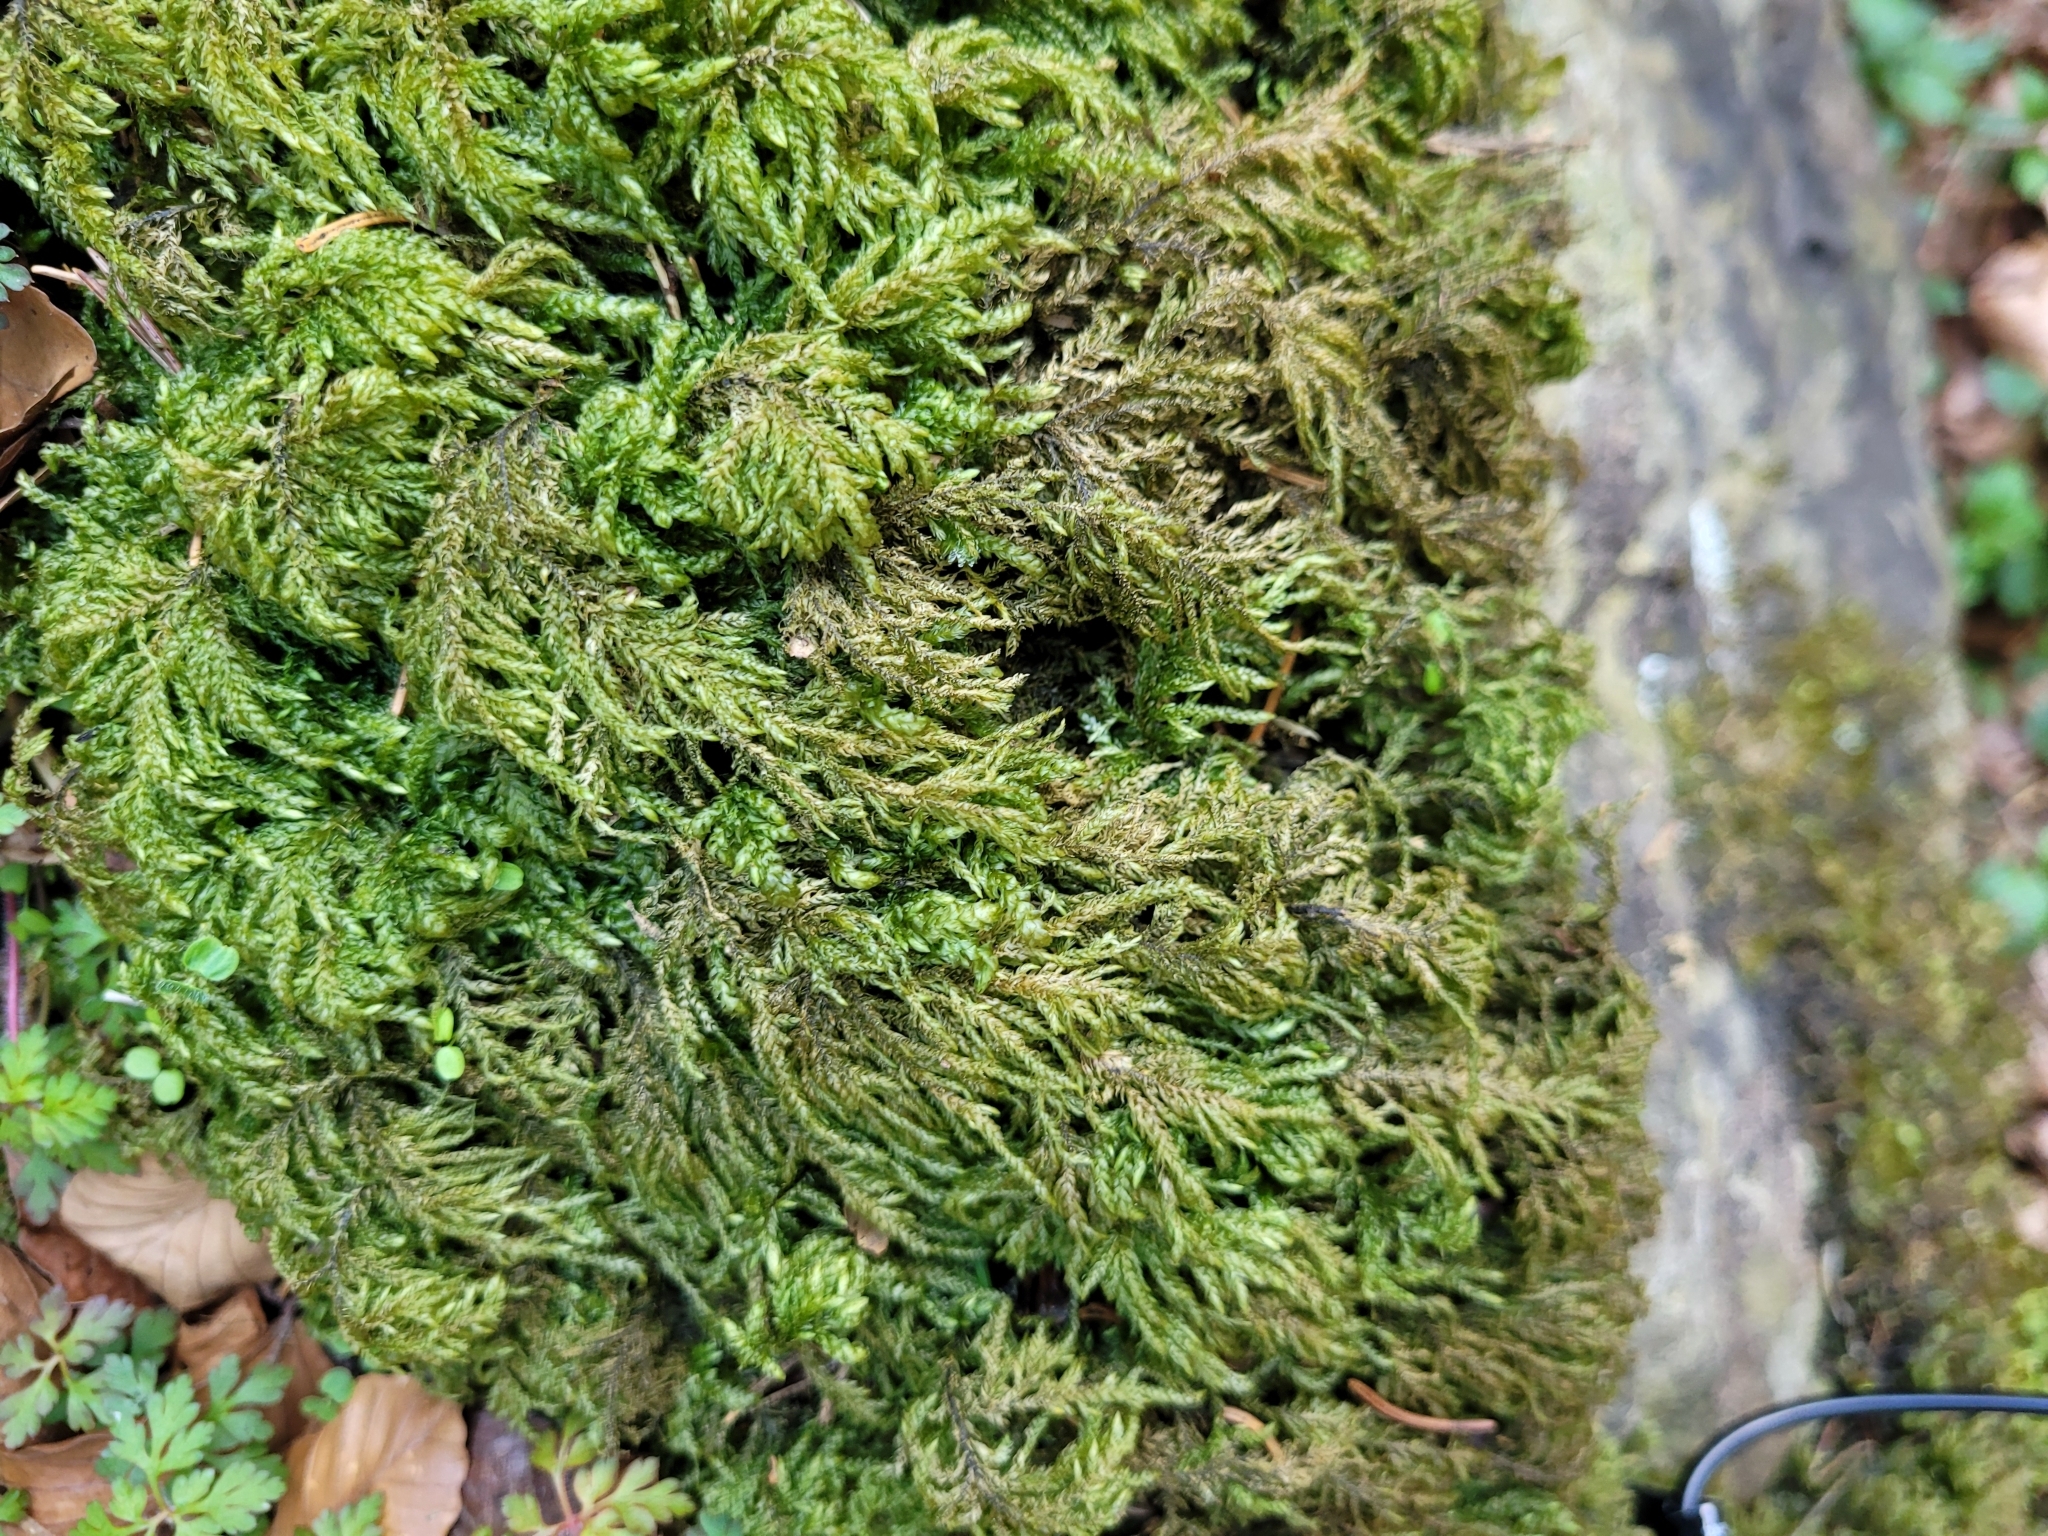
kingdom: Plantae
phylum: Bryophyta
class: Bryopsida
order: Hypnales
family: Neckeraceae
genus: Thamnobryum
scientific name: Thamnobryum alopecurum
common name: Fox-tail feather-moss
